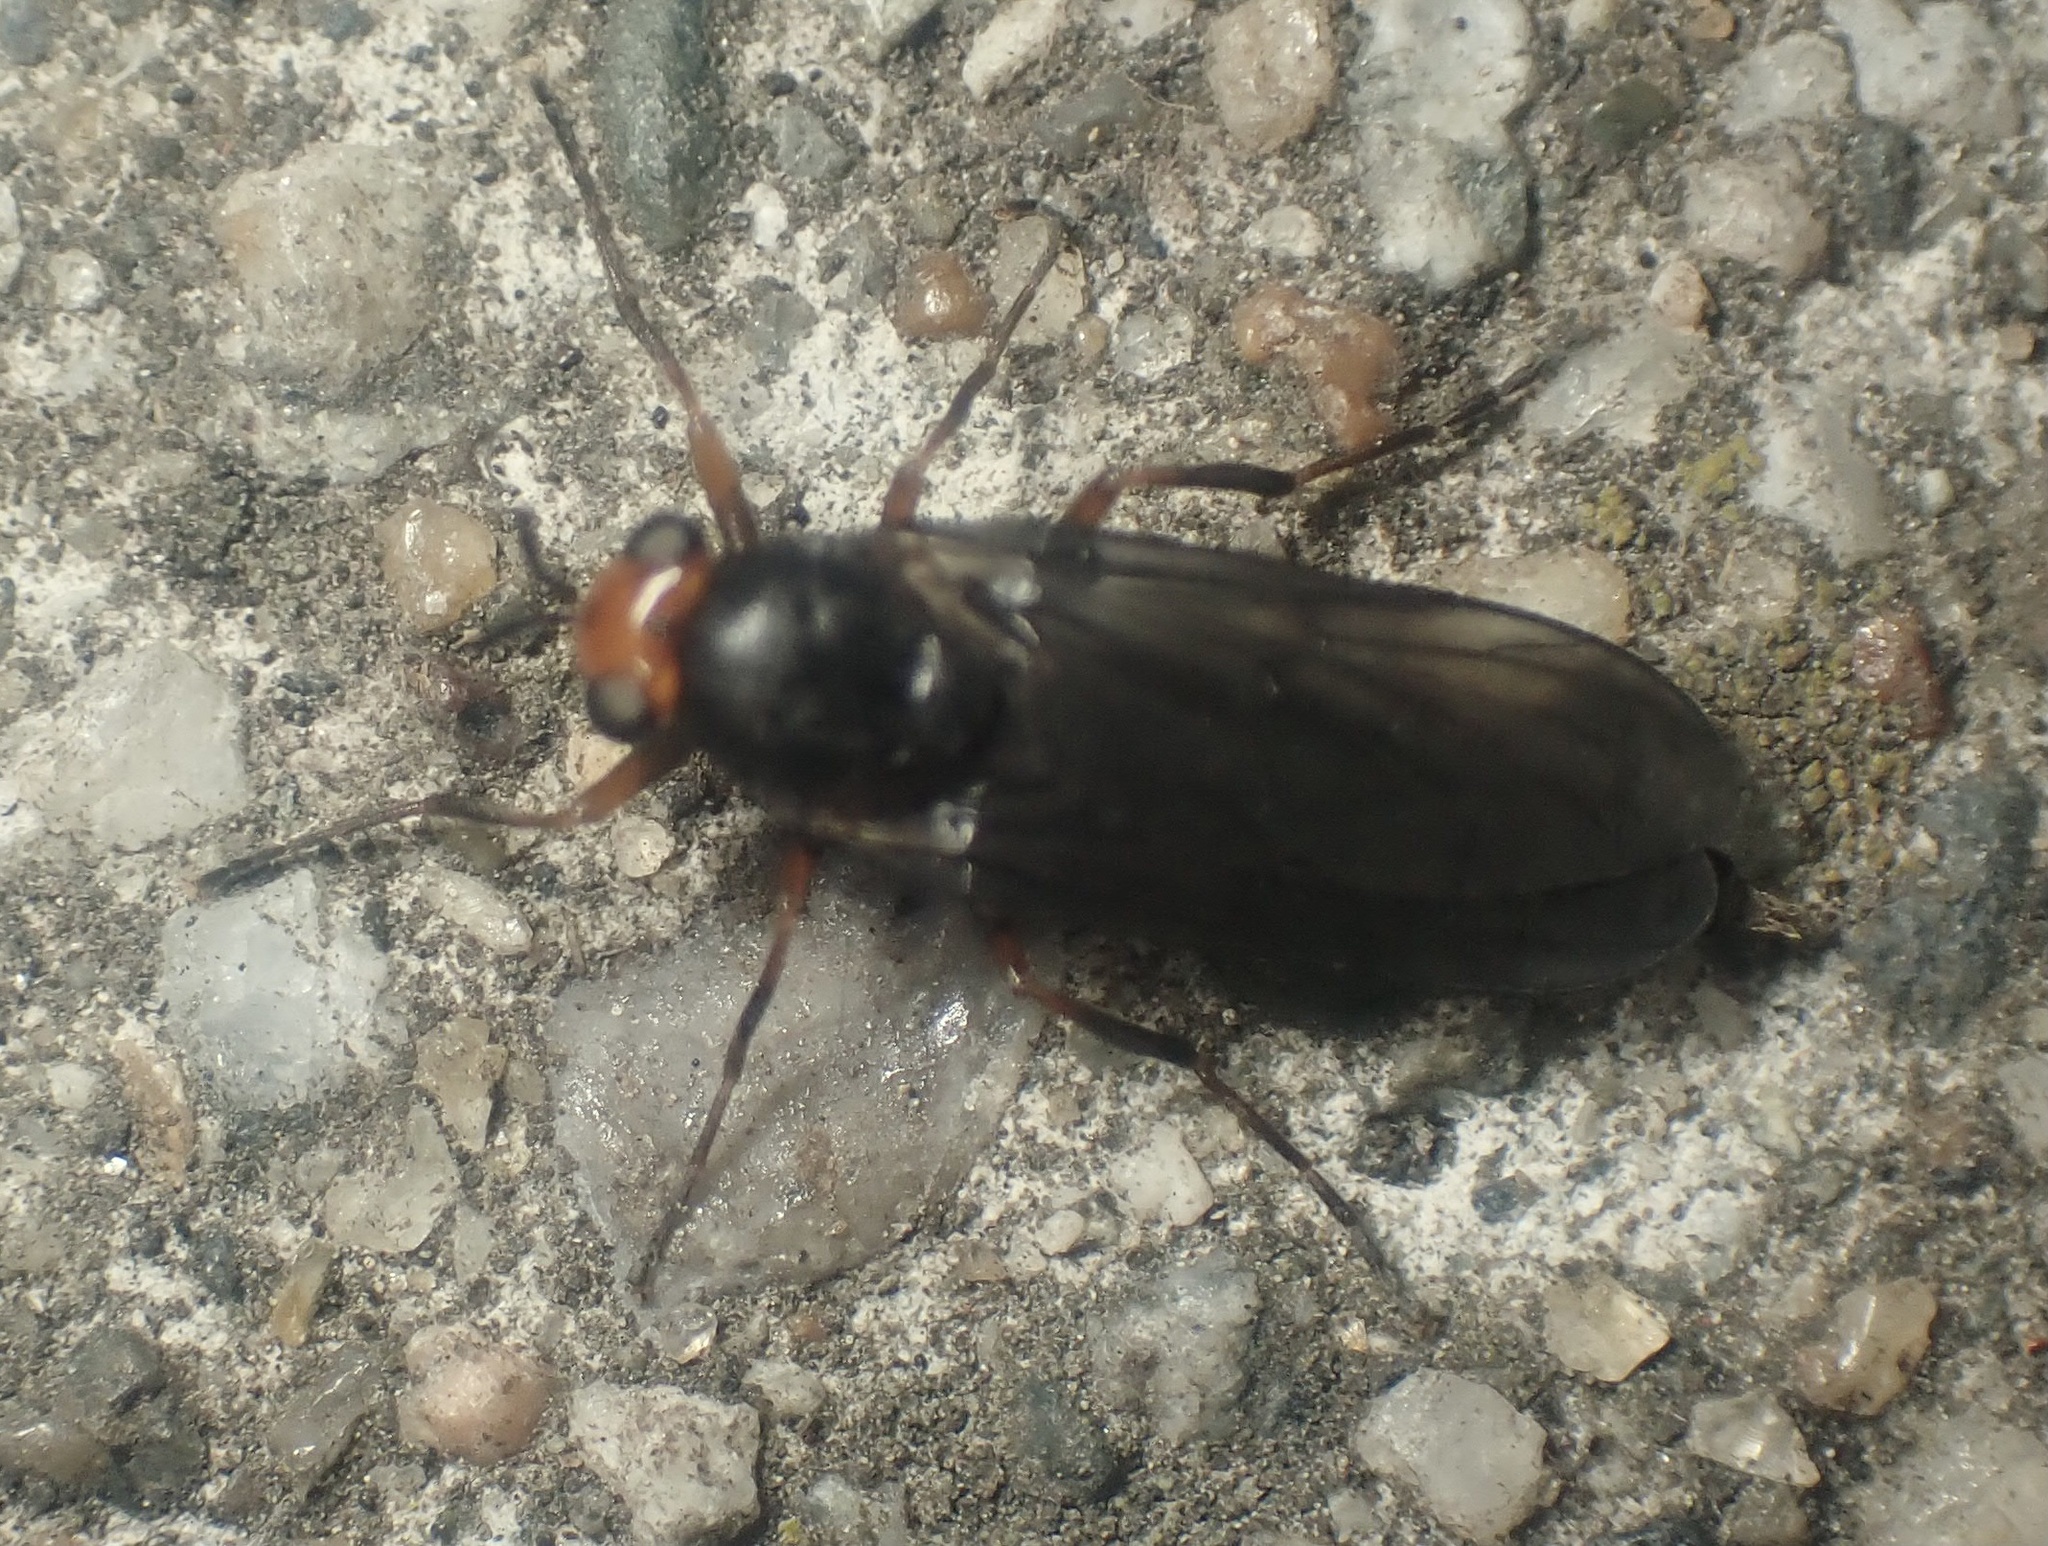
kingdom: Animalia
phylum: Arthropoda
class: Insecta
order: Diptera
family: Stratiomyidae
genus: Inopus
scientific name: Inopus rubriceps
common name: Soldier fly
